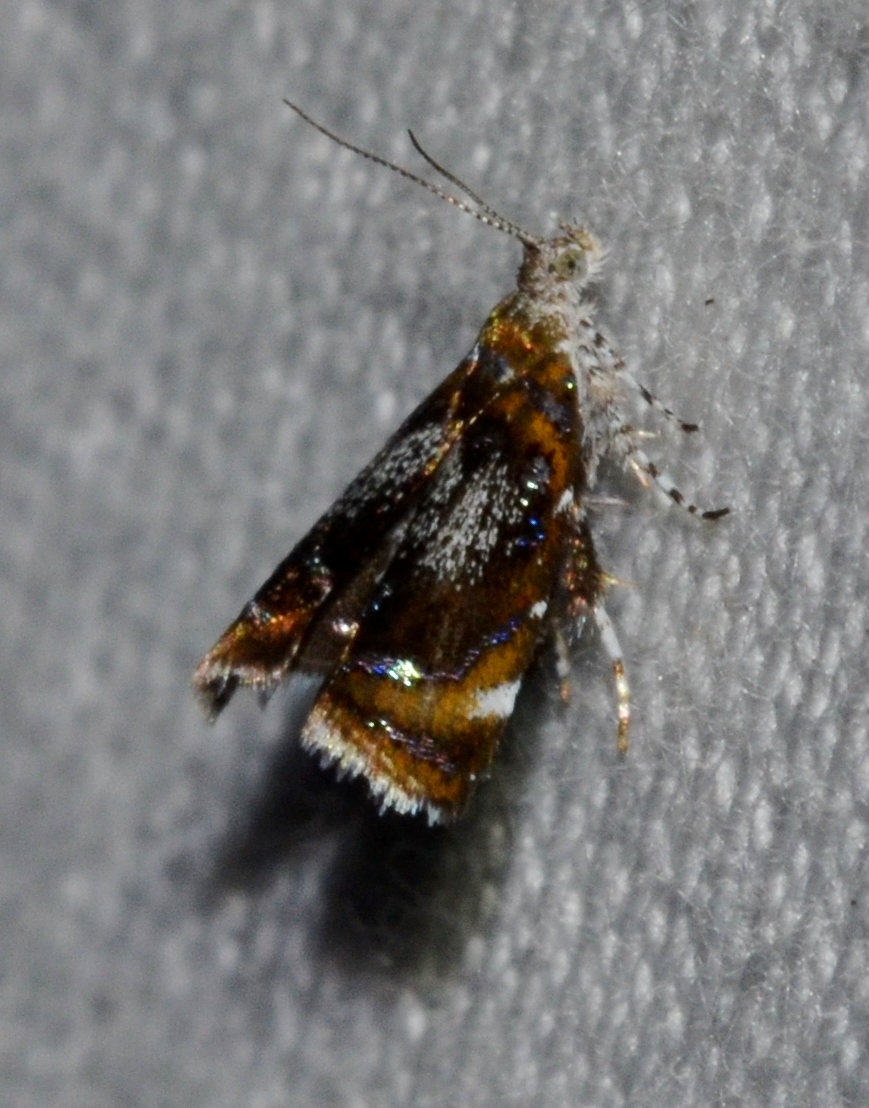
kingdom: Animalia
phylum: Arthropoda
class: Insecta
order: Lepidoptera
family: Choreutidae
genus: Prochoreutis
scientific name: Prochoreutis inflatella
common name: Skullcap skeletonizer moth
